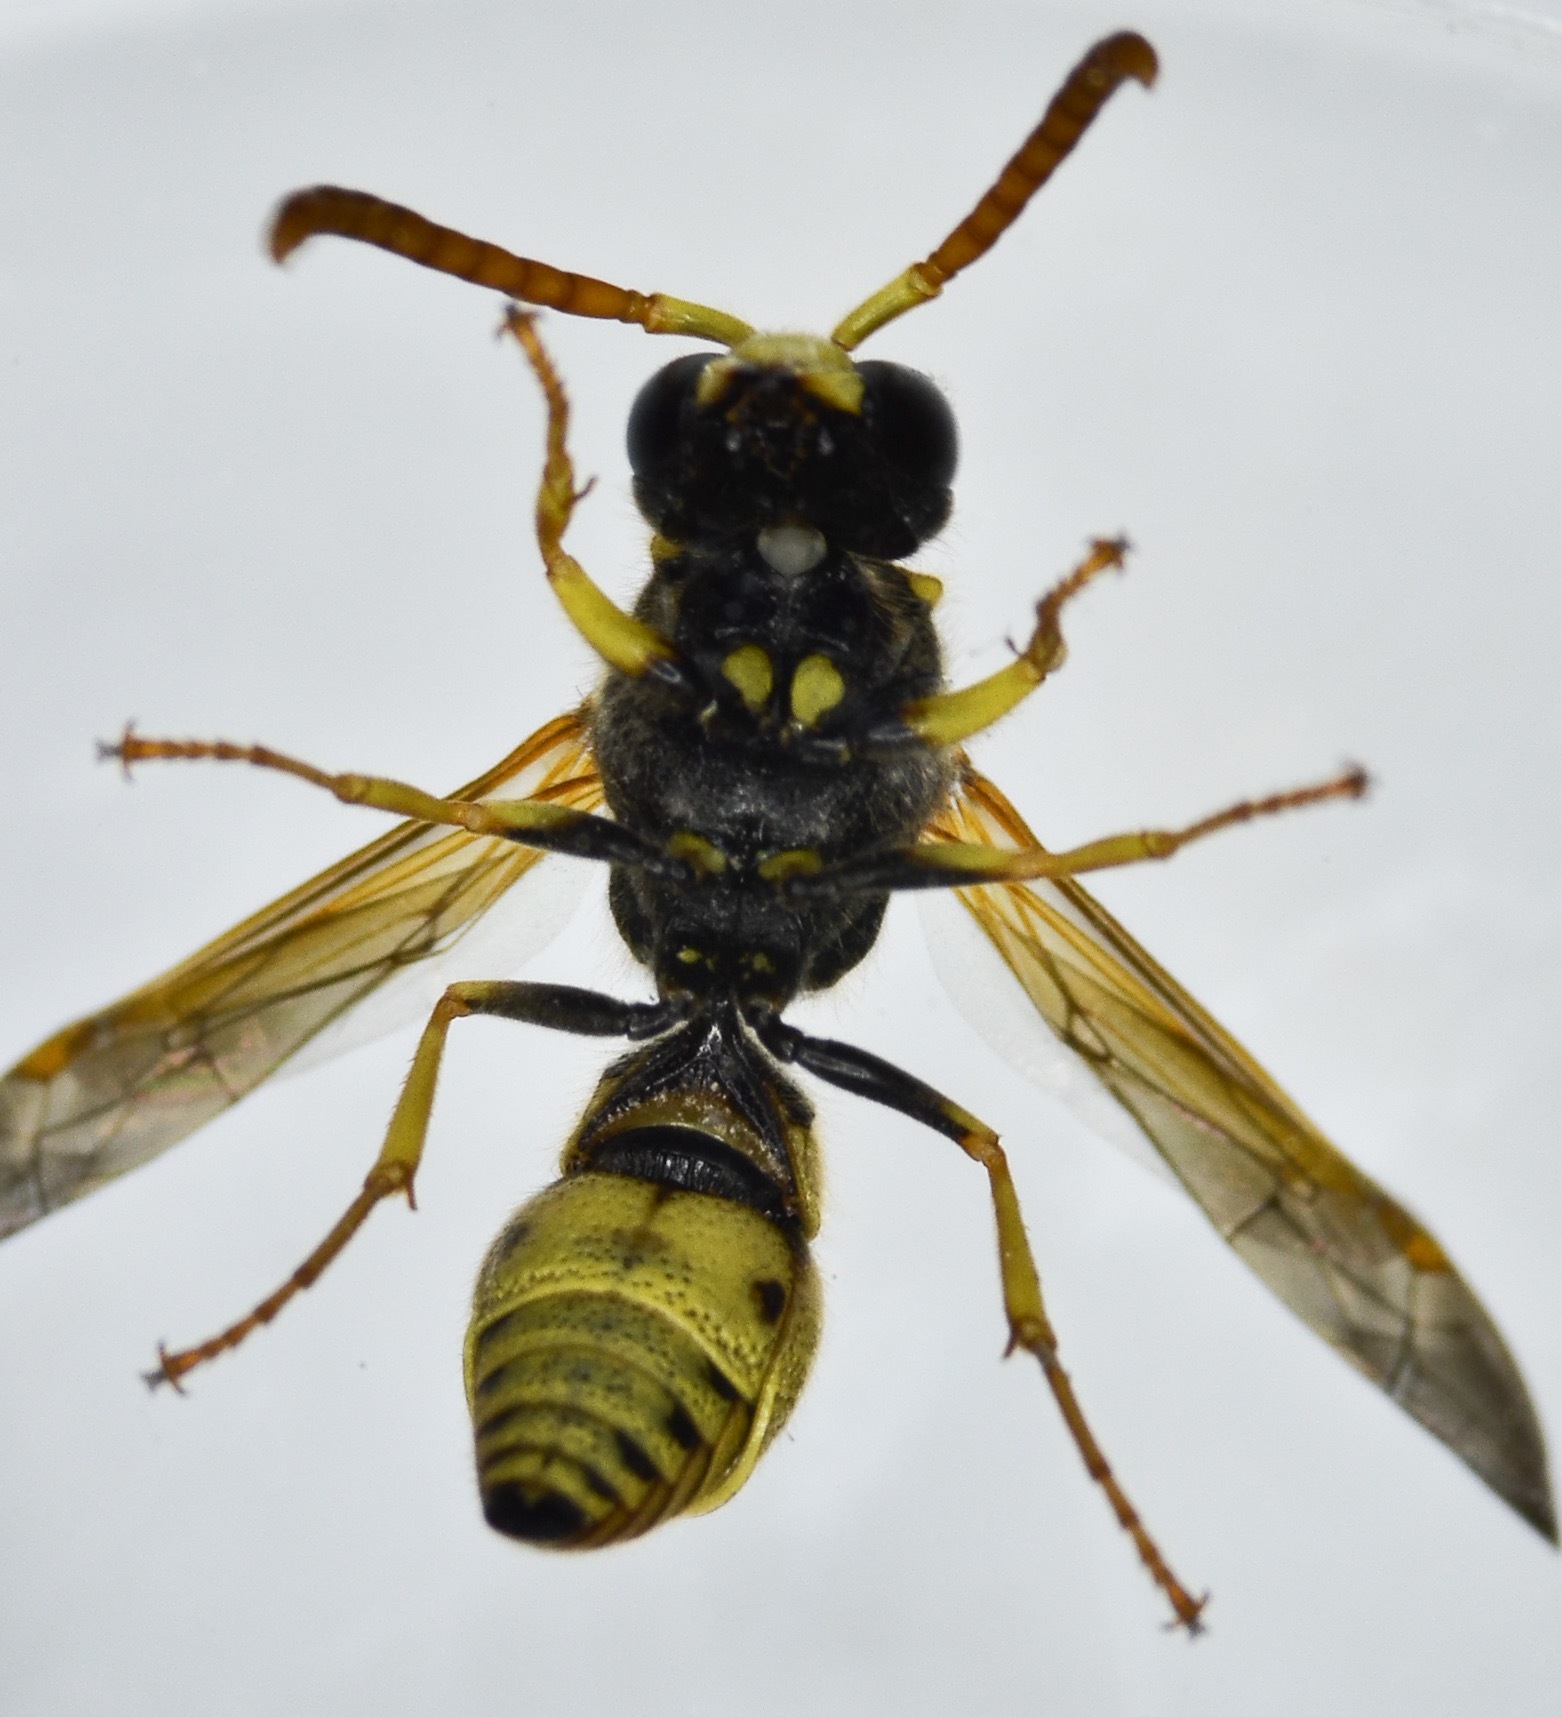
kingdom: Animalia
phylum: Arthropoda
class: Insecta
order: Hymenoptera
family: Vespidae
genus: Ancistrocerus
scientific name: Ancistrocerus tuberculocephalus
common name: Vespid wasp
